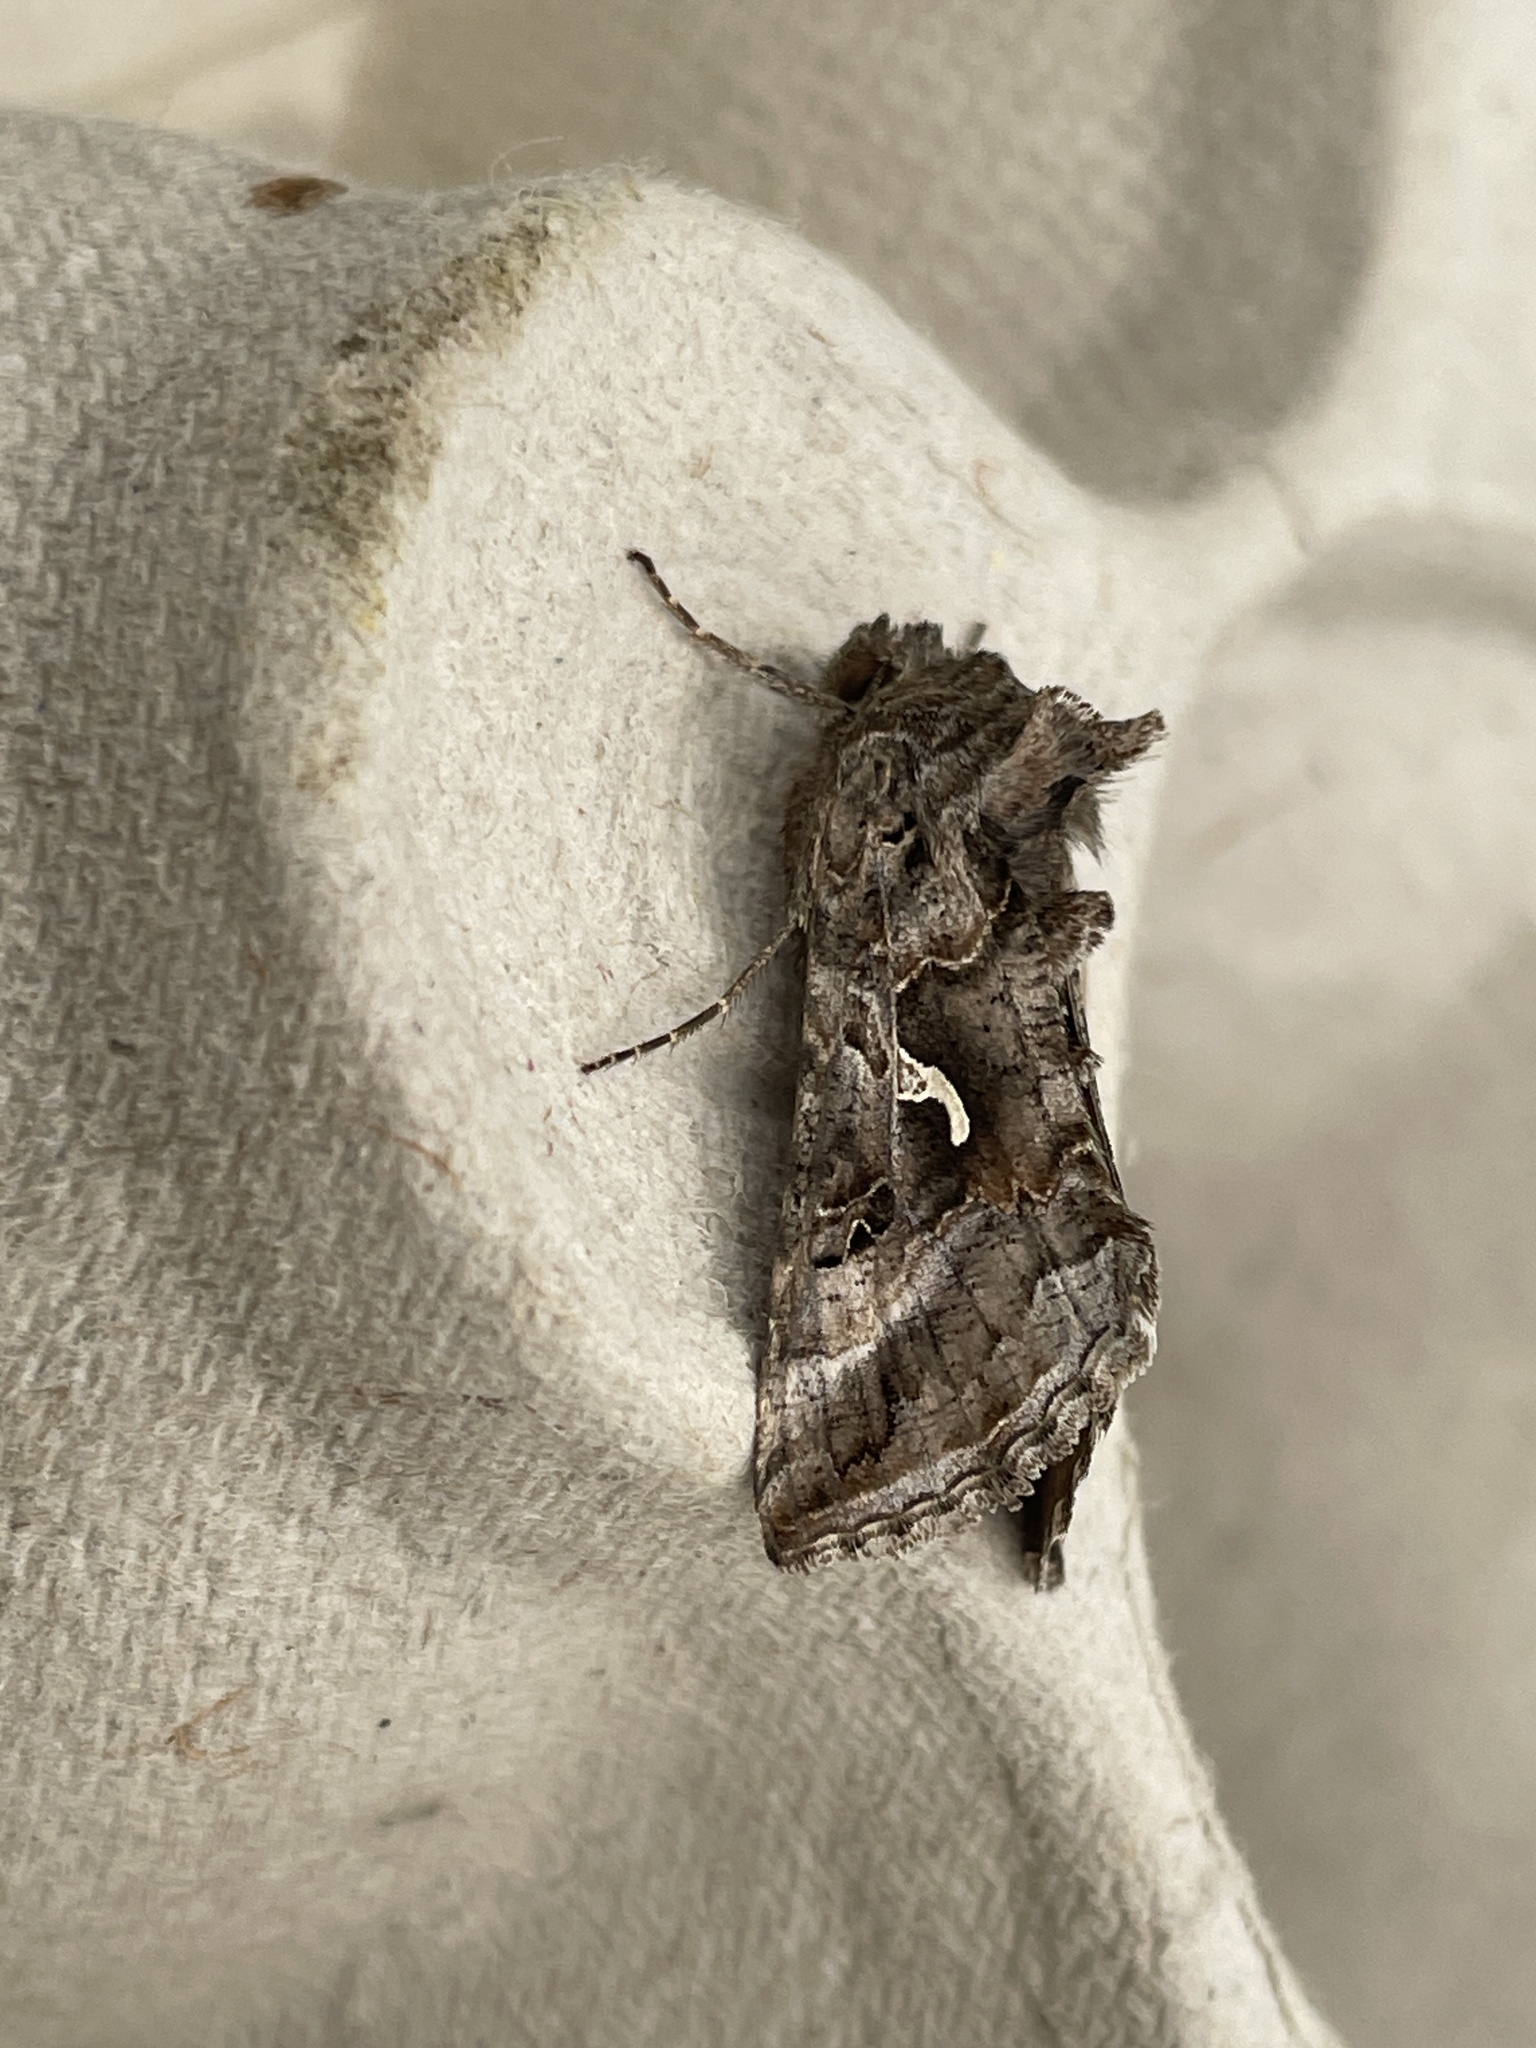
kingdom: Animalia
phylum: Arthropoda
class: Insecta
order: Lepidoptera
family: Noctuidae
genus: Autographa
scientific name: Autographa gamma
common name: Silver y
